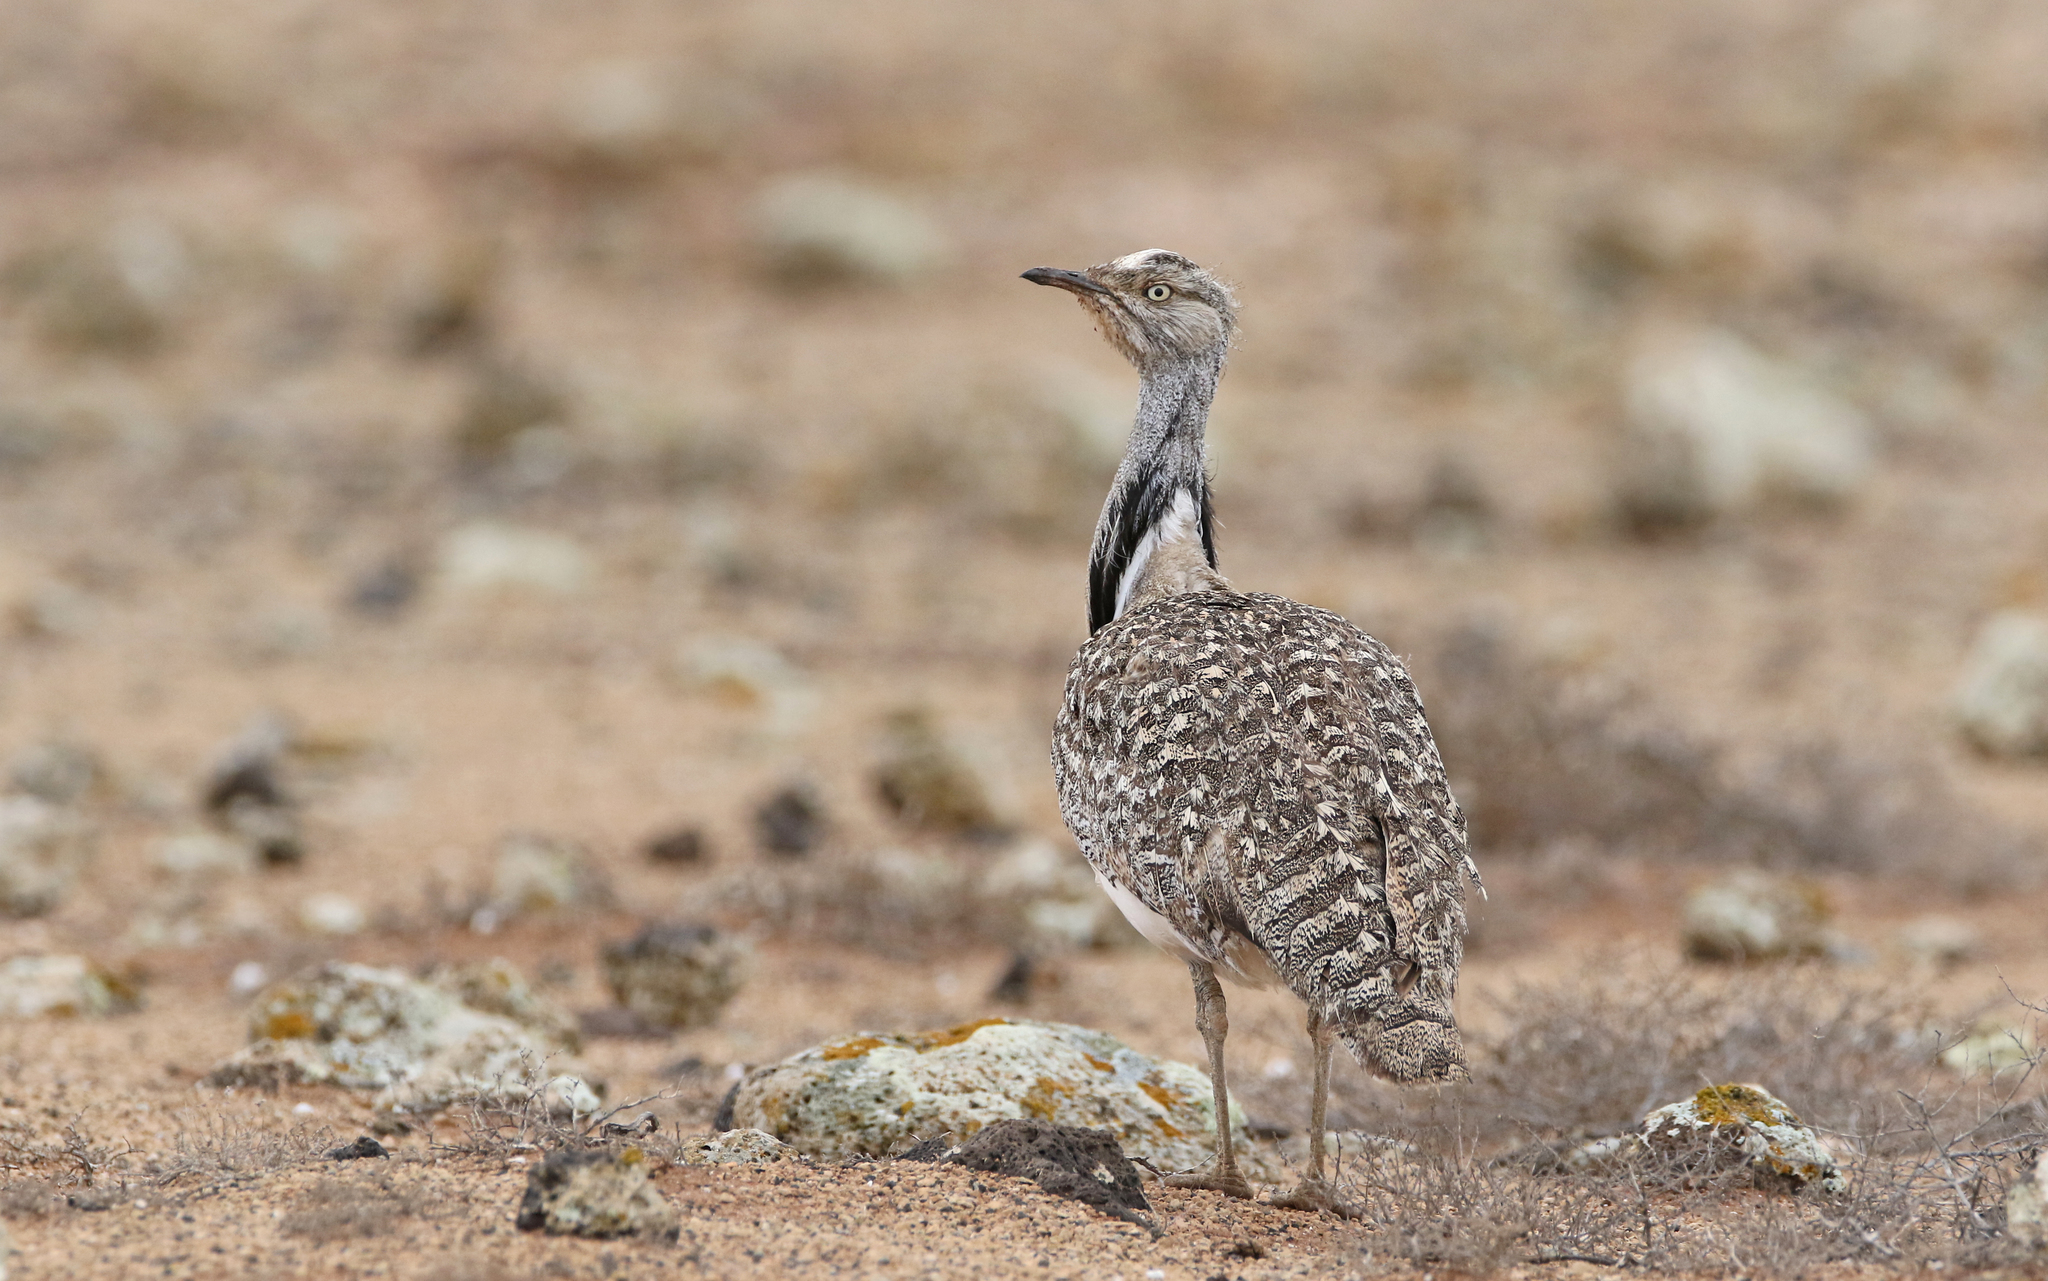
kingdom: Animalia
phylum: Chordata
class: Aves
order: Otidiformes
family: Otididae
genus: Chlamydotis
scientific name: Chlamydotis undulata
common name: Houbara bustard
